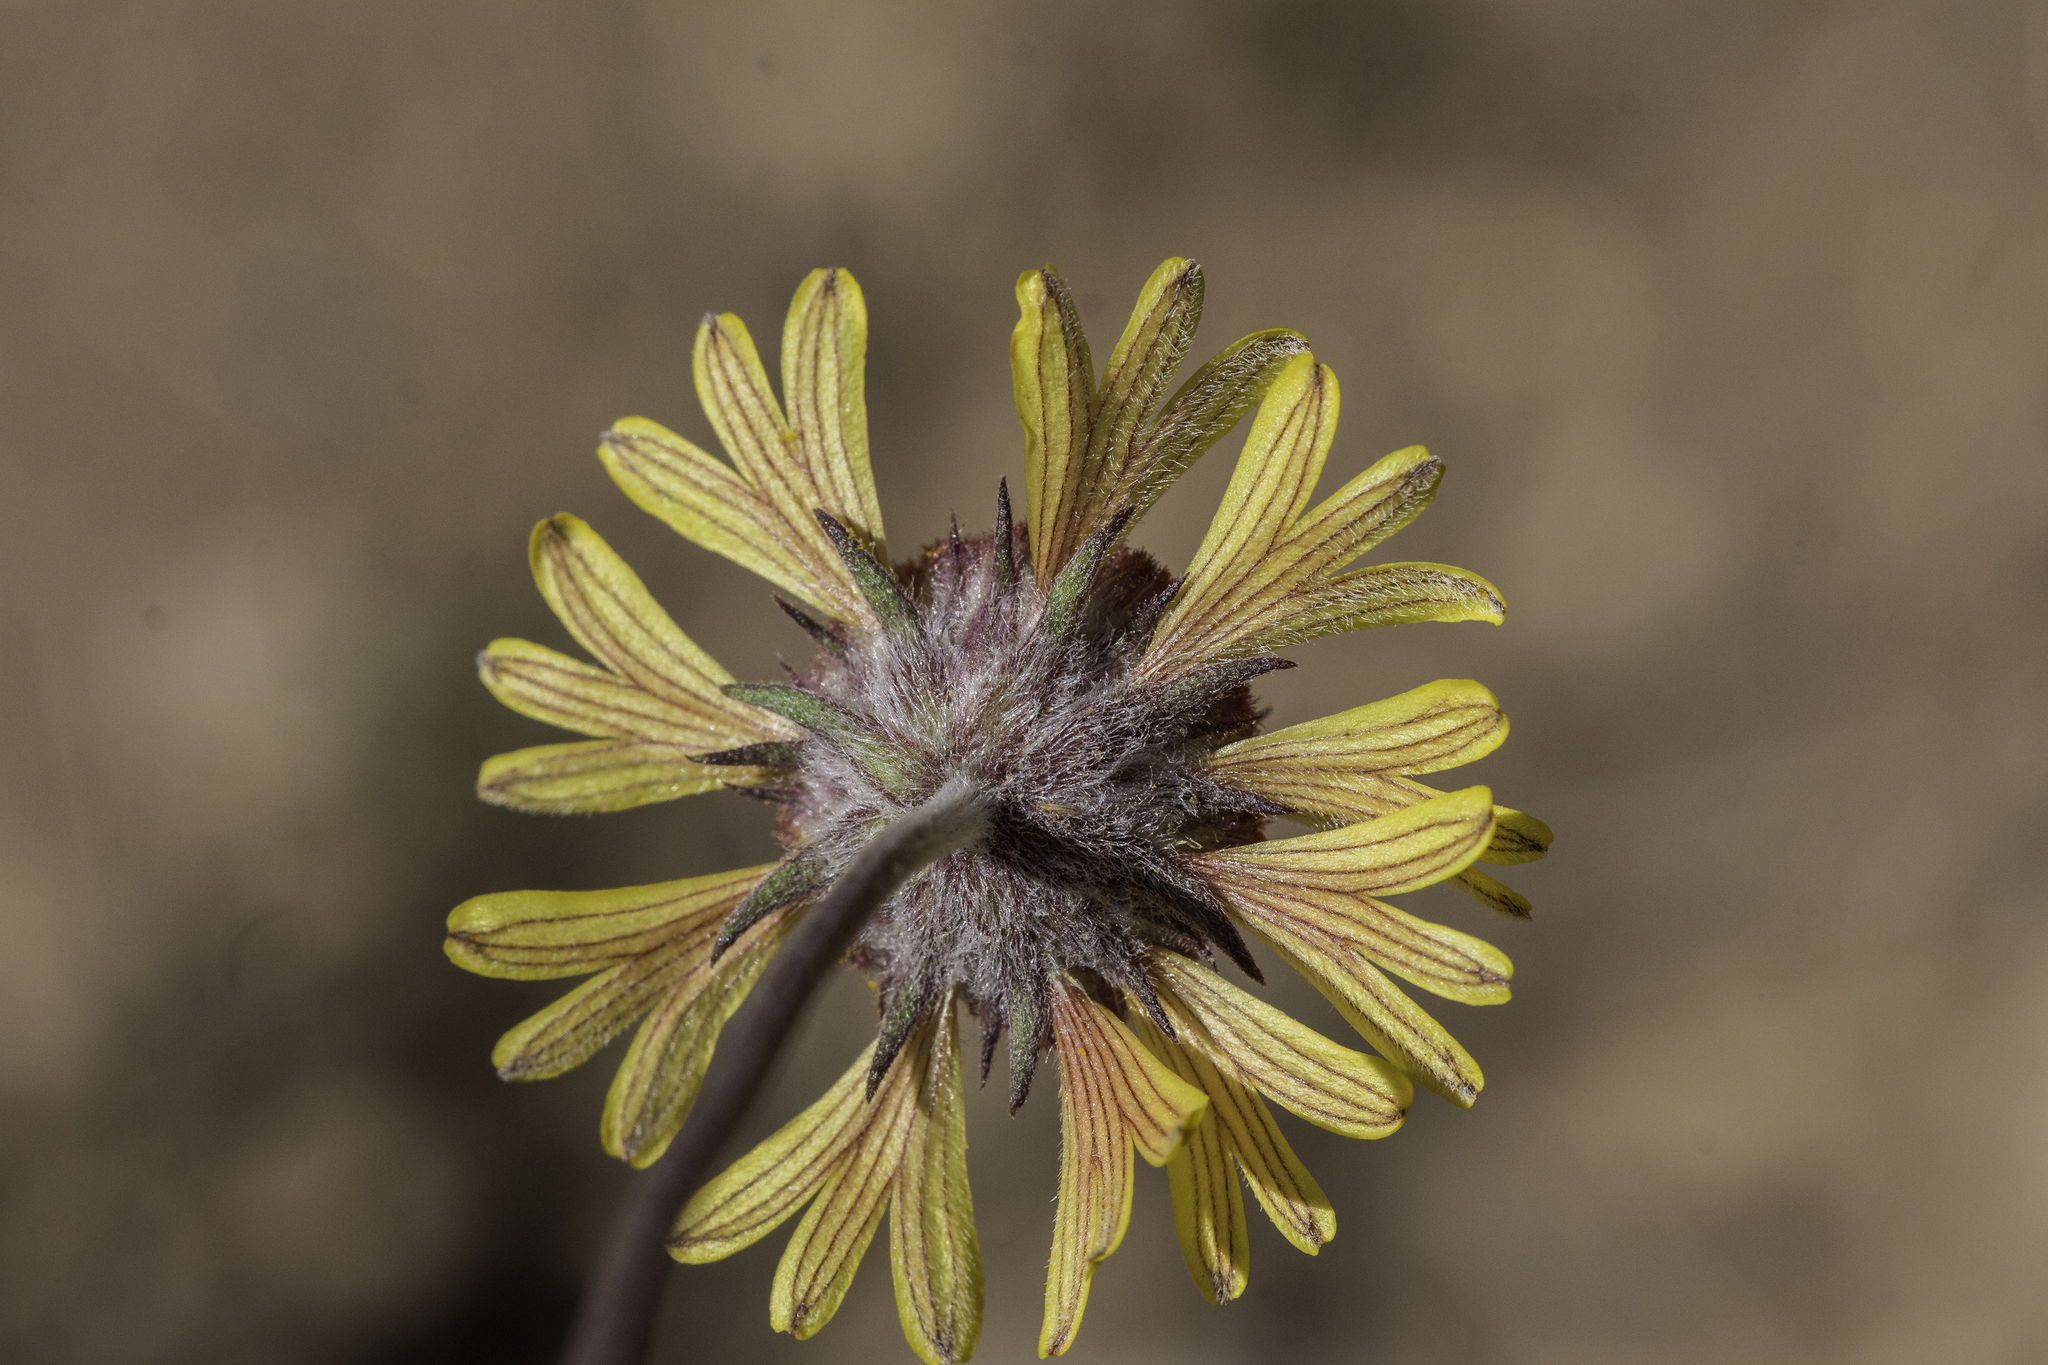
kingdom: Plantae
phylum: Tracheophyta
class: Magnoliopsida
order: Asterales
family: Asteraceae
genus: Gaillardia
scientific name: Gaillardia pinnatifida
